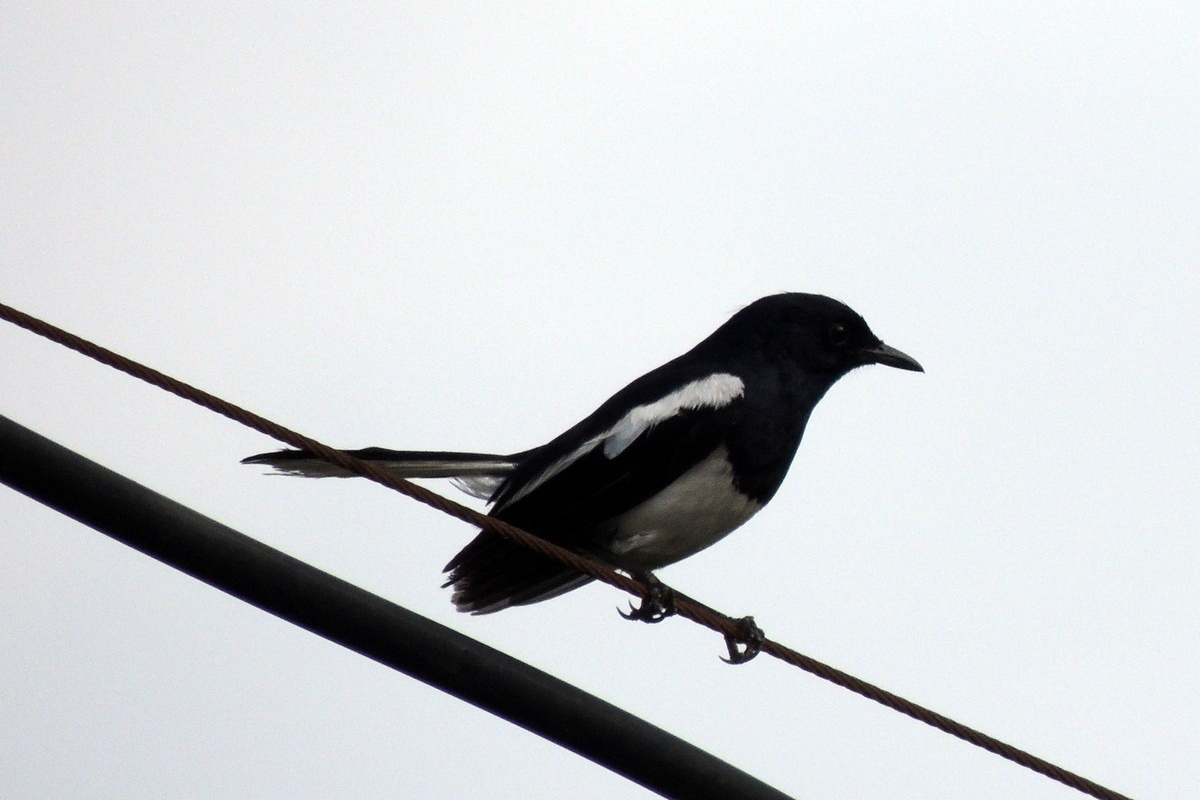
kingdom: Animalia
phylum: Chordata
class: Aves
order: Passeriformes
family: Muscicapidae
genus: Copsychus
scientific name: Copsychus saularis
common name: Oriental magpie-robin
